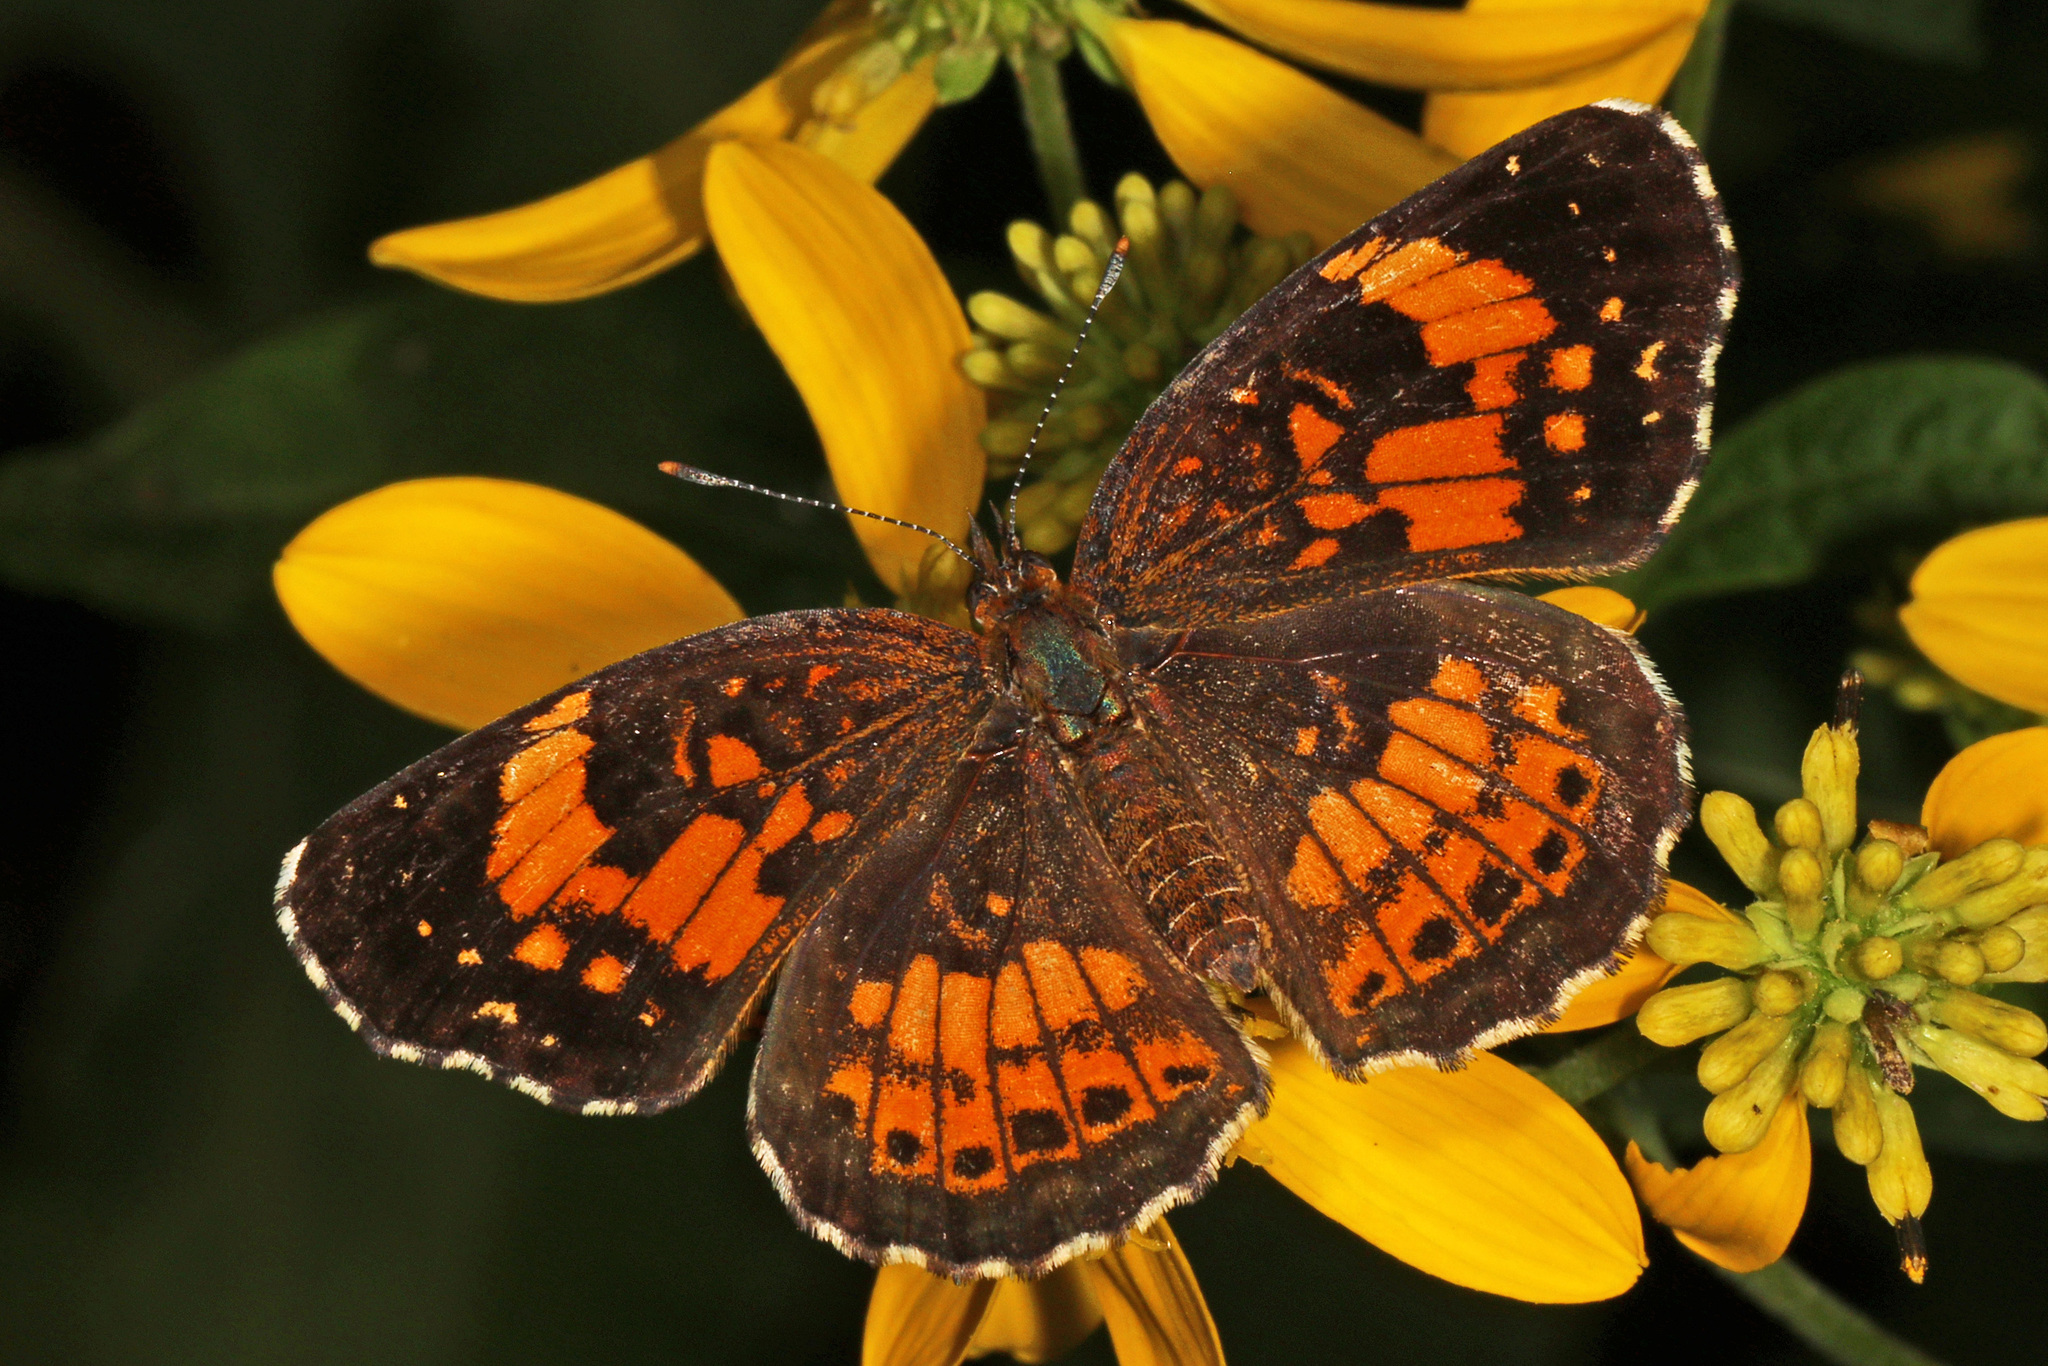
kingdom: Animalia
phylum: Arthropoda
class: Insecta
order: Lepidoptera
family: Nymphalidae
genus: Chlosyne
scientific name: Chlosyne nycteis
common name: Silvery checkerspot
